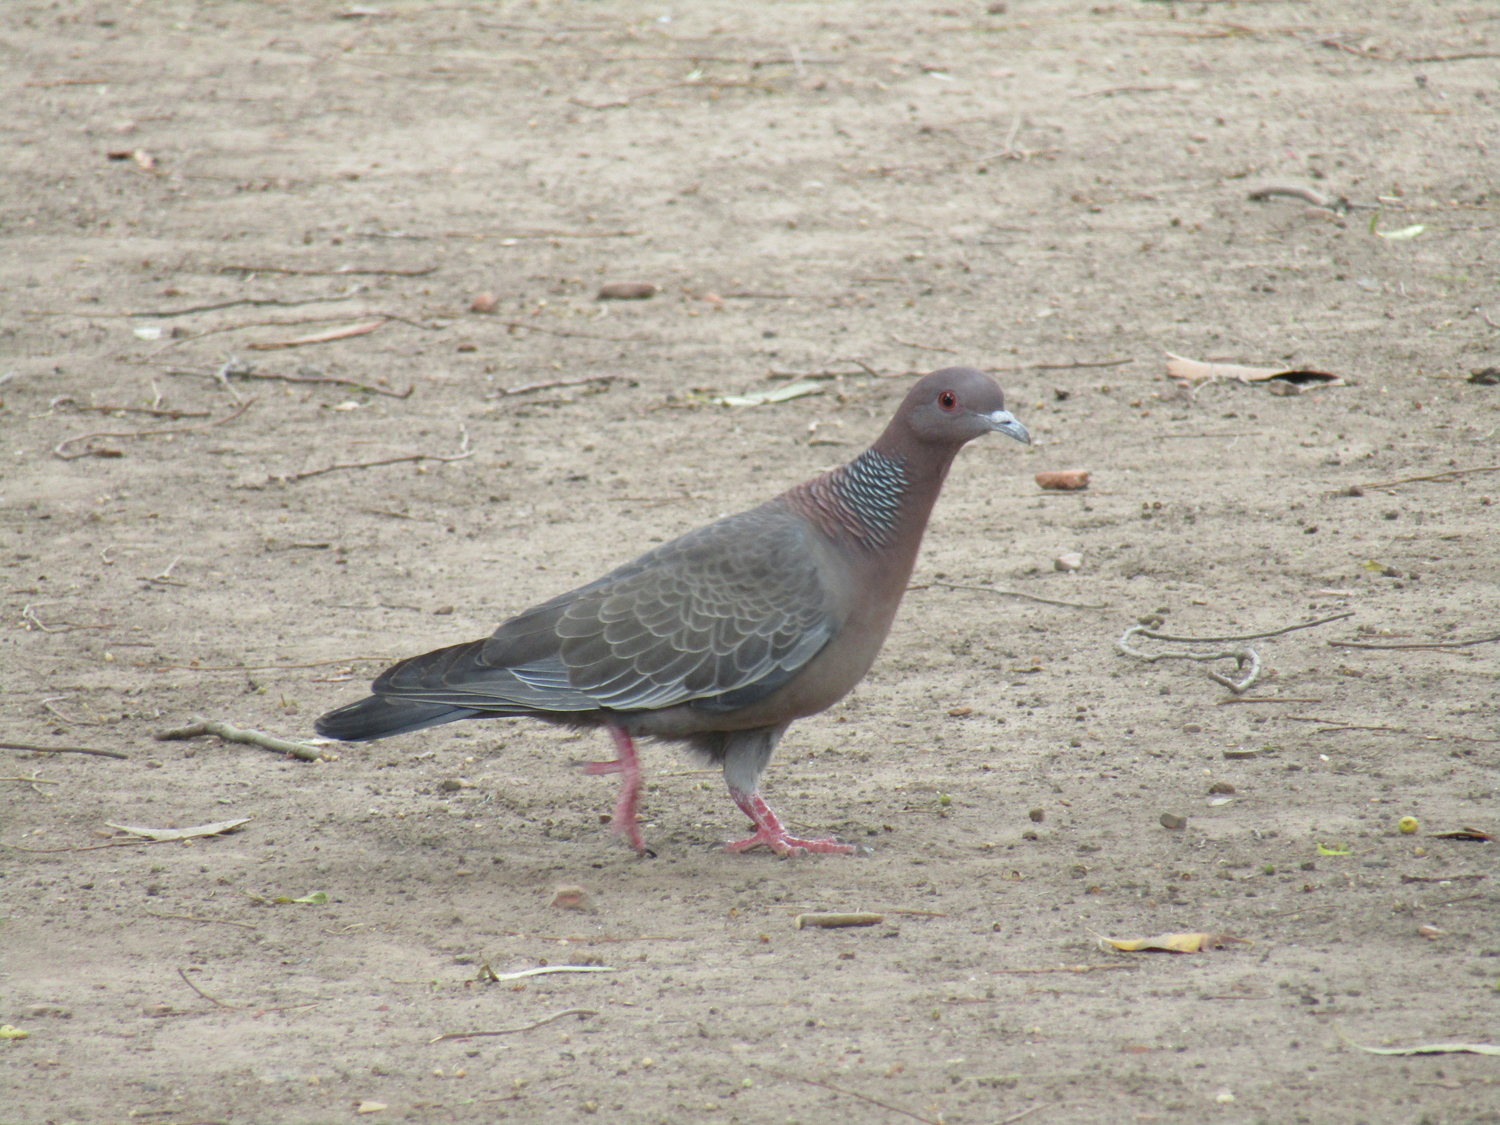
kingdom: Animalia
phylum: Chordata
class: Aves
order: Columbiformes
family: Columbidae
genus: Patagioenas
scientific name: Patagioenas picazuro
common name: Picazuro pigeon
